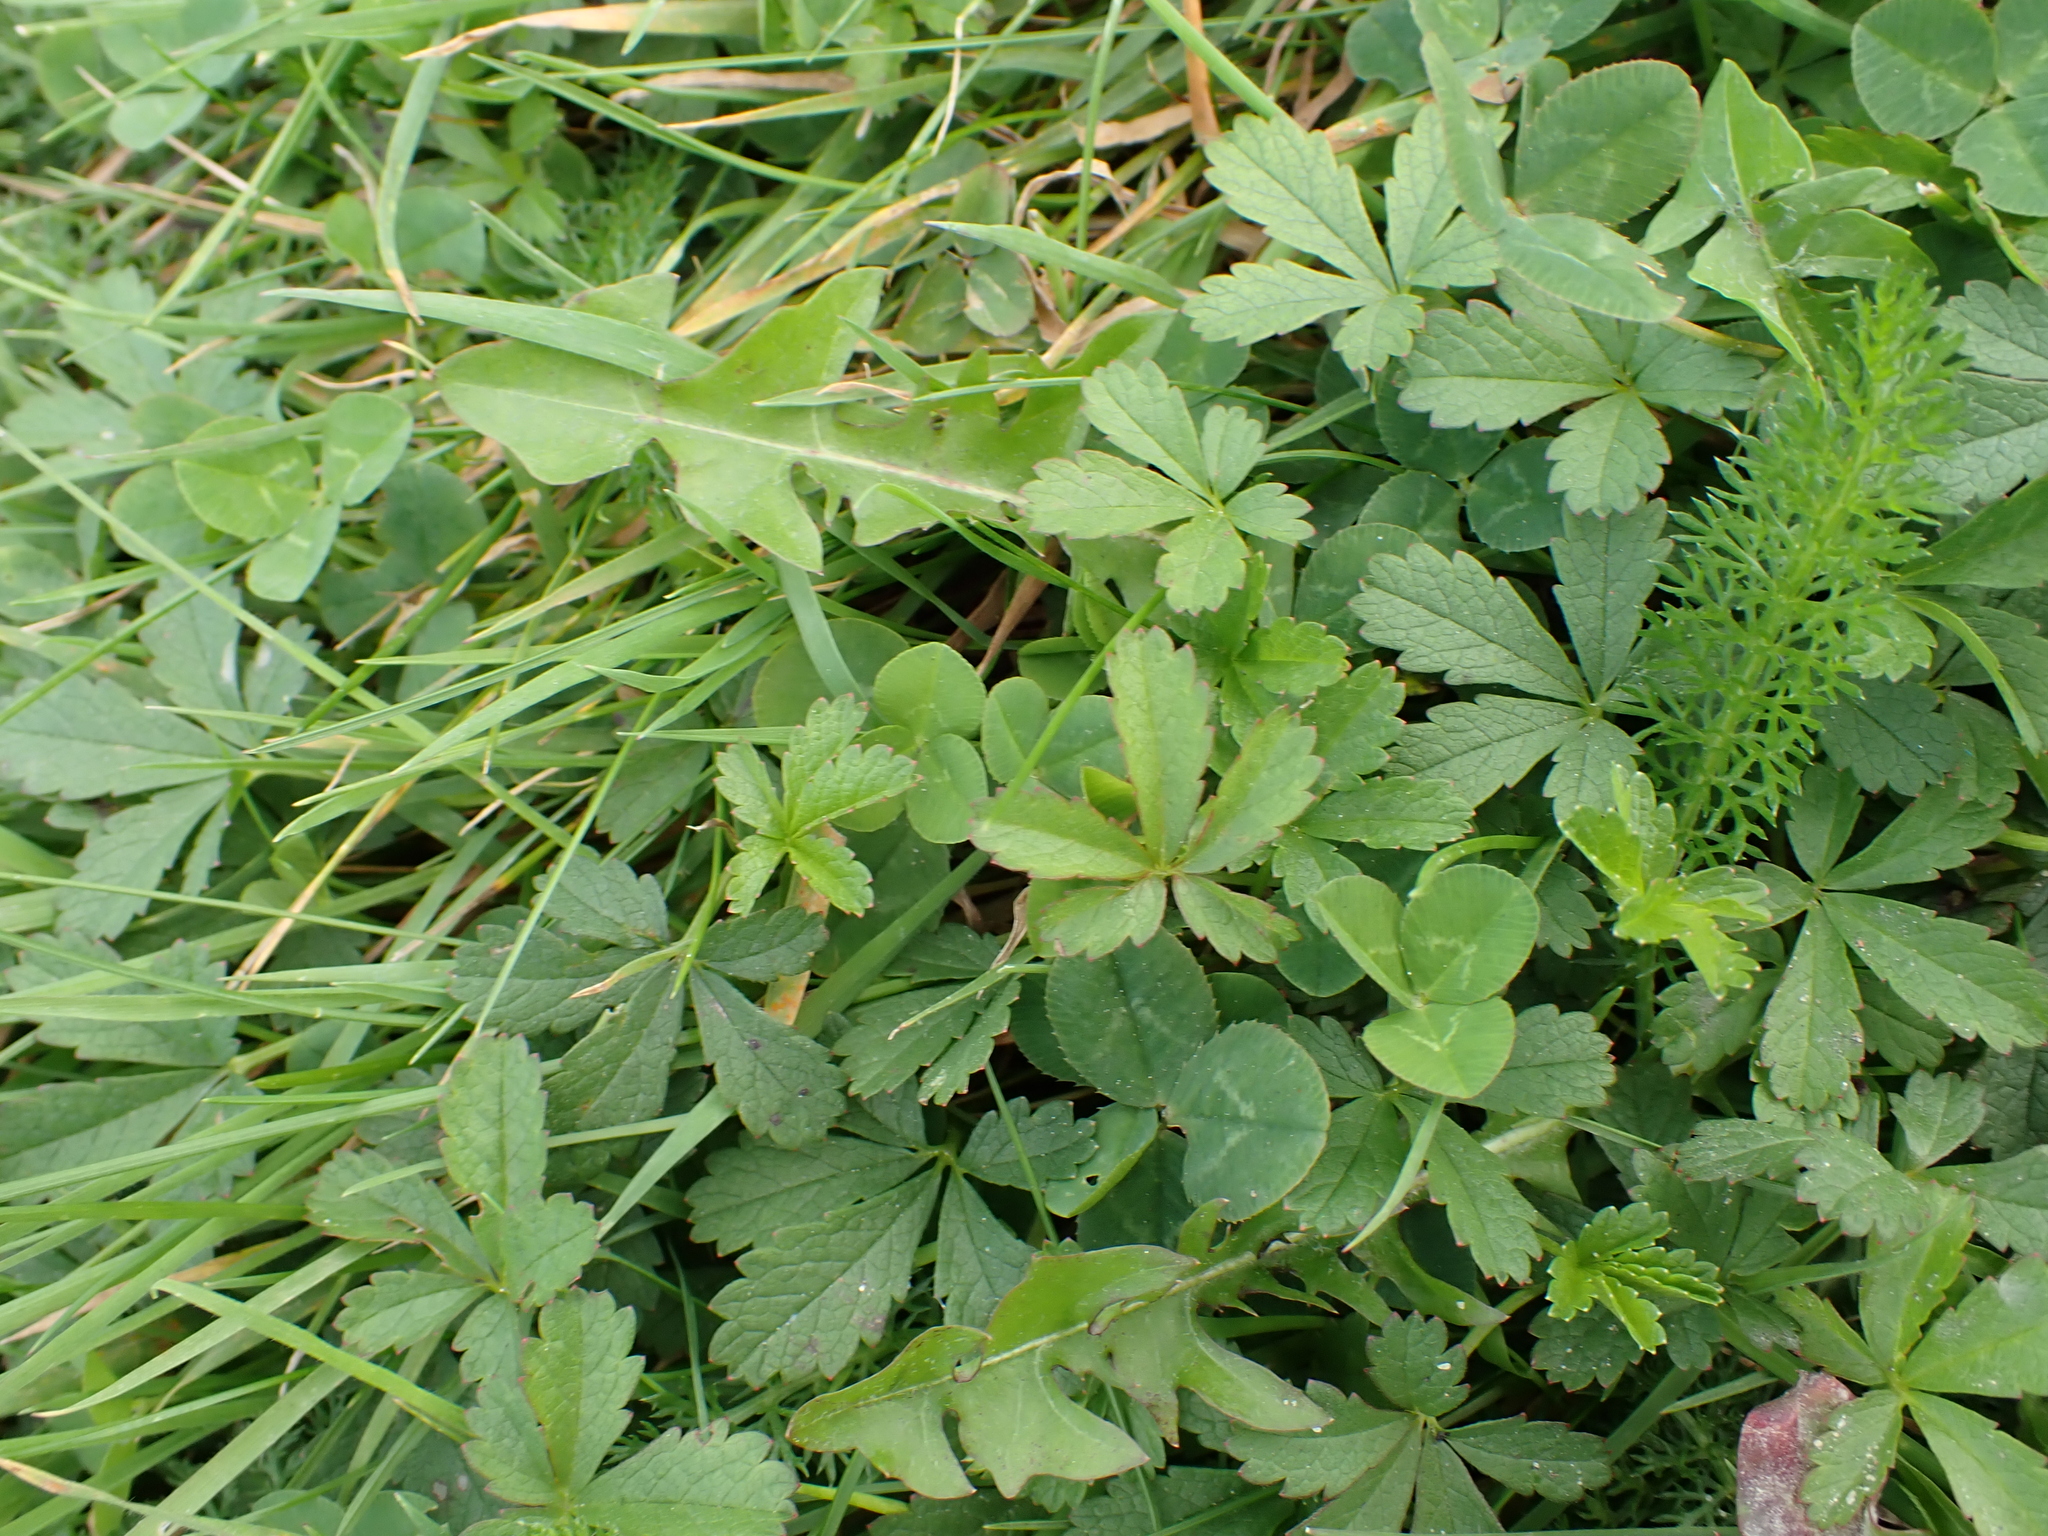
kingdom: Plantae
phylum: Tracheophyta
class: Magnoliopsida
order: Rosales
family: Rosaceae
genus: Potentilla
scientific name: Potentilla reptans
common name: Creeping cinquefoil
